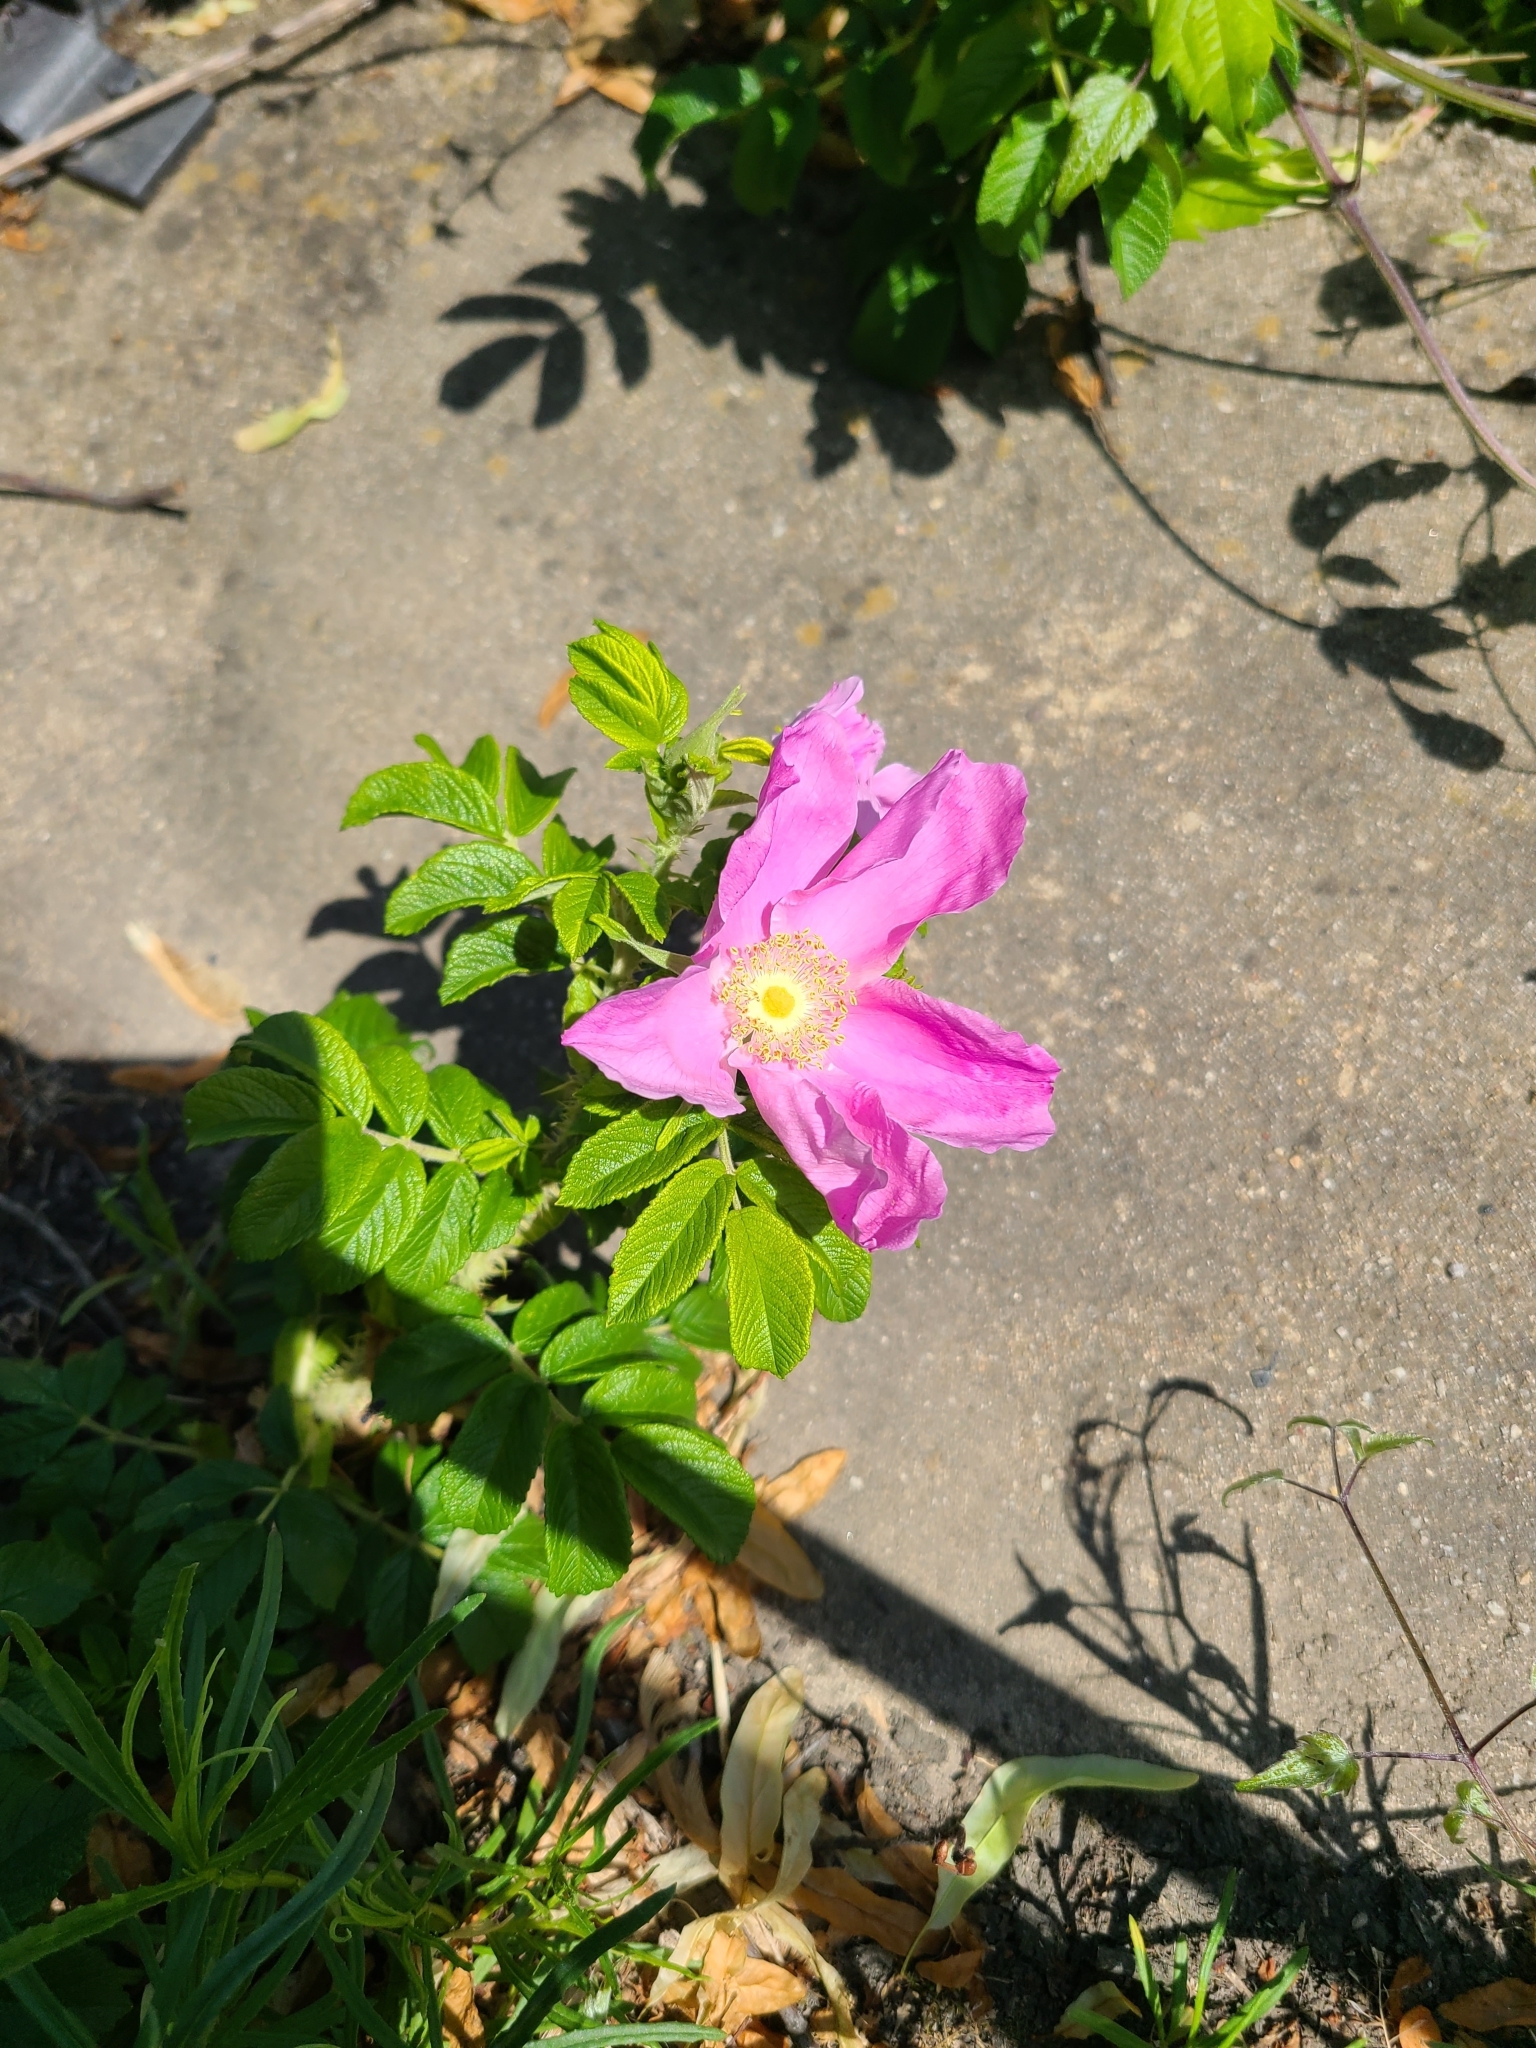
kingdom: Plantae
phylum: Tracheophyta
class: Magnoliopsida
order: Rosales
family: Rosaceae
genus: Rosa
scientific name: Rosa rugosa
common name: Japanese rose
